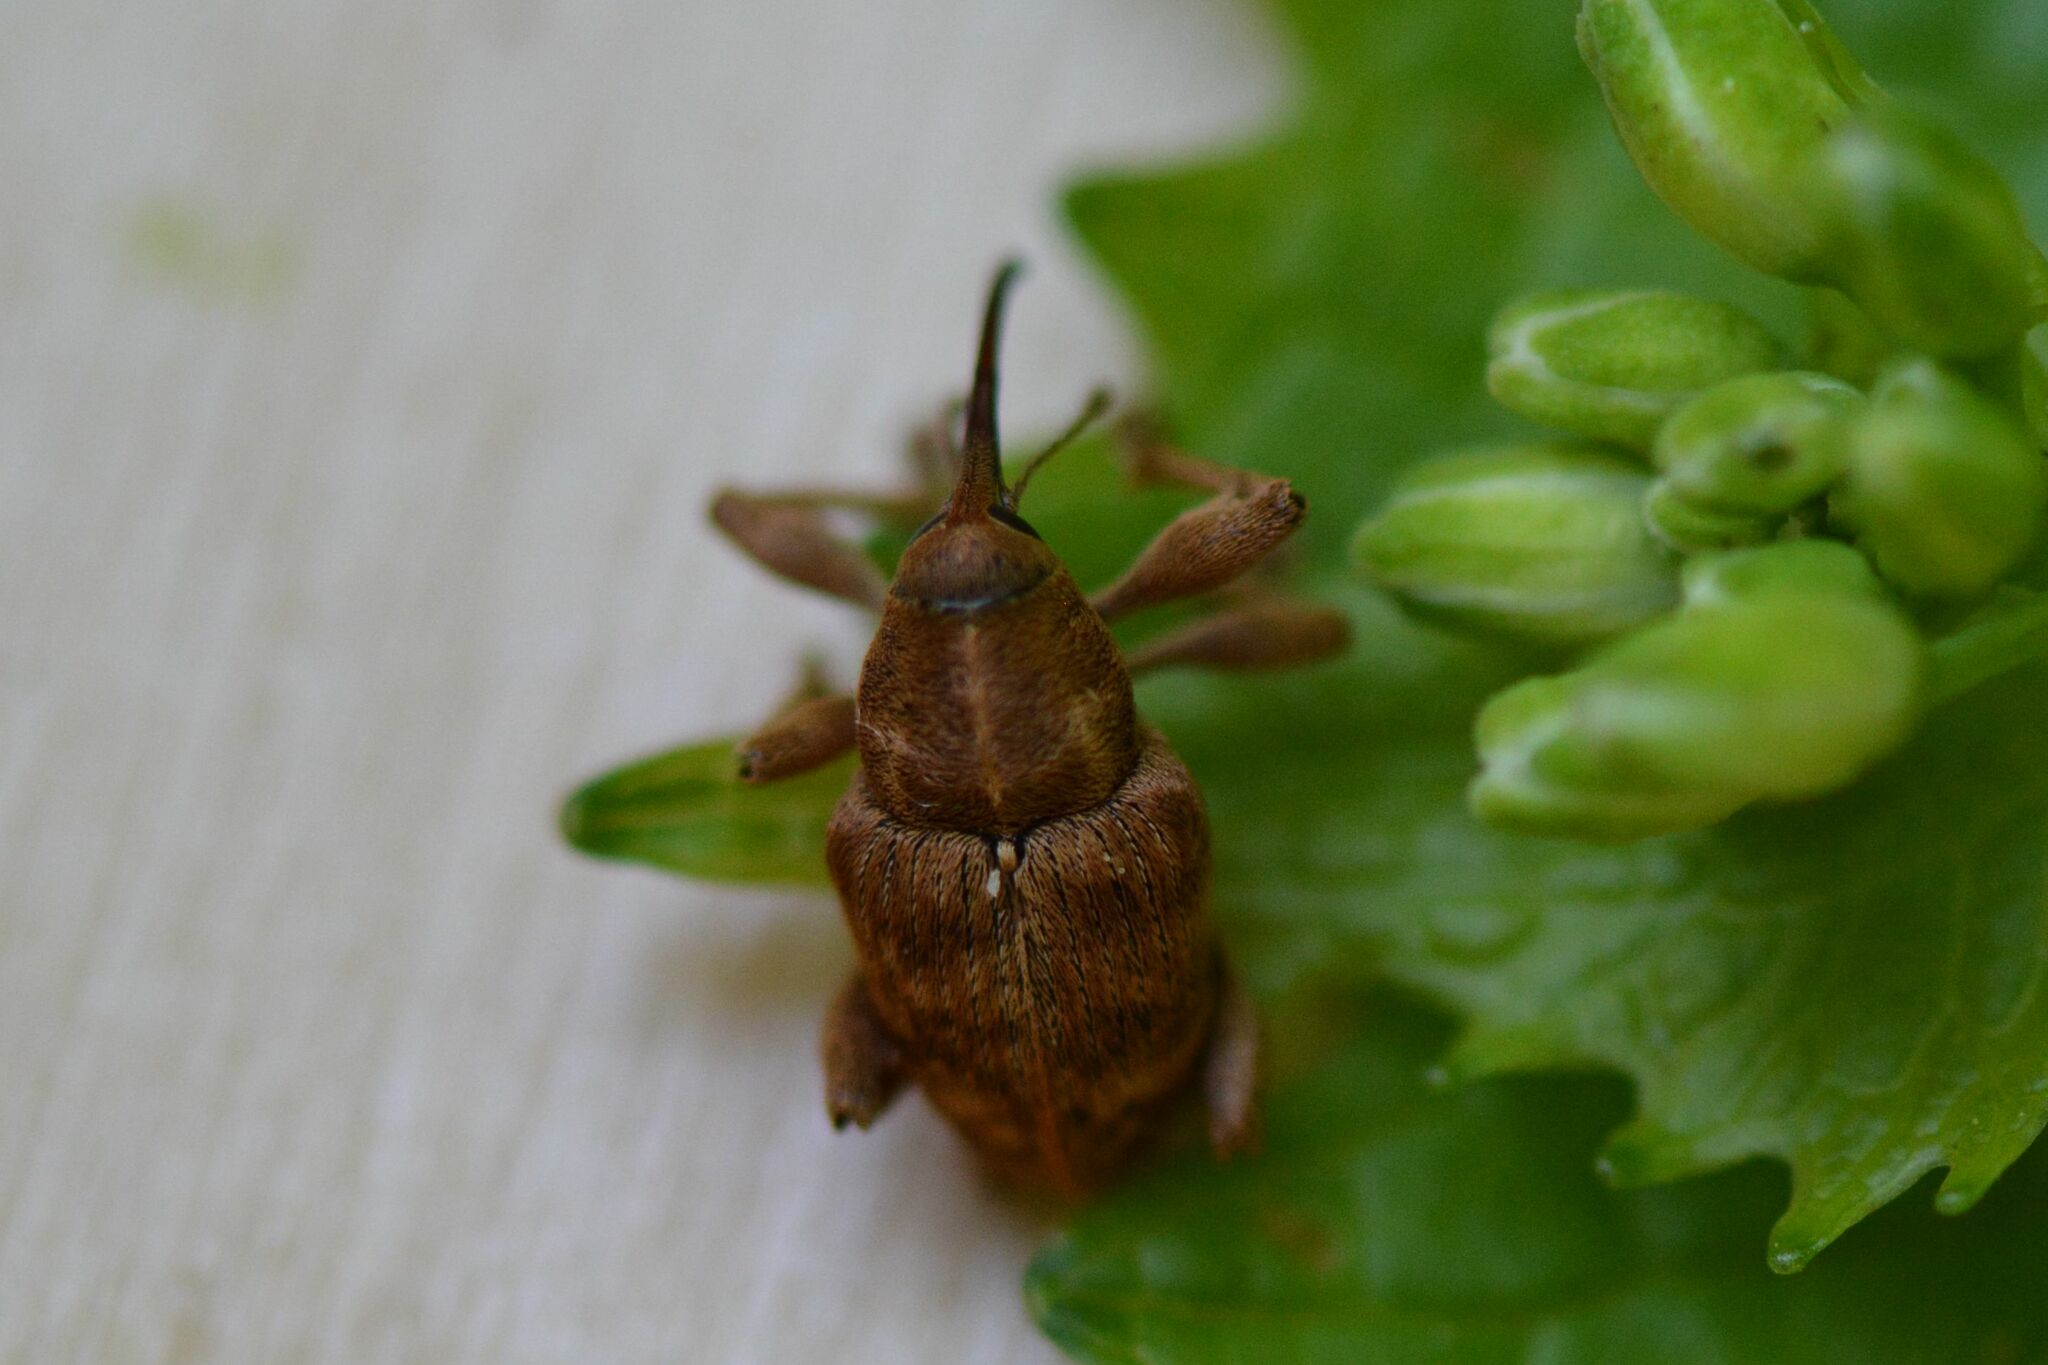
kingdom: Animalia
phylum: Arthropoda
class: Insecta
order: Coleoptera
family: Curculionidae
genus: Curculio
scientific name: Curculio venosus
